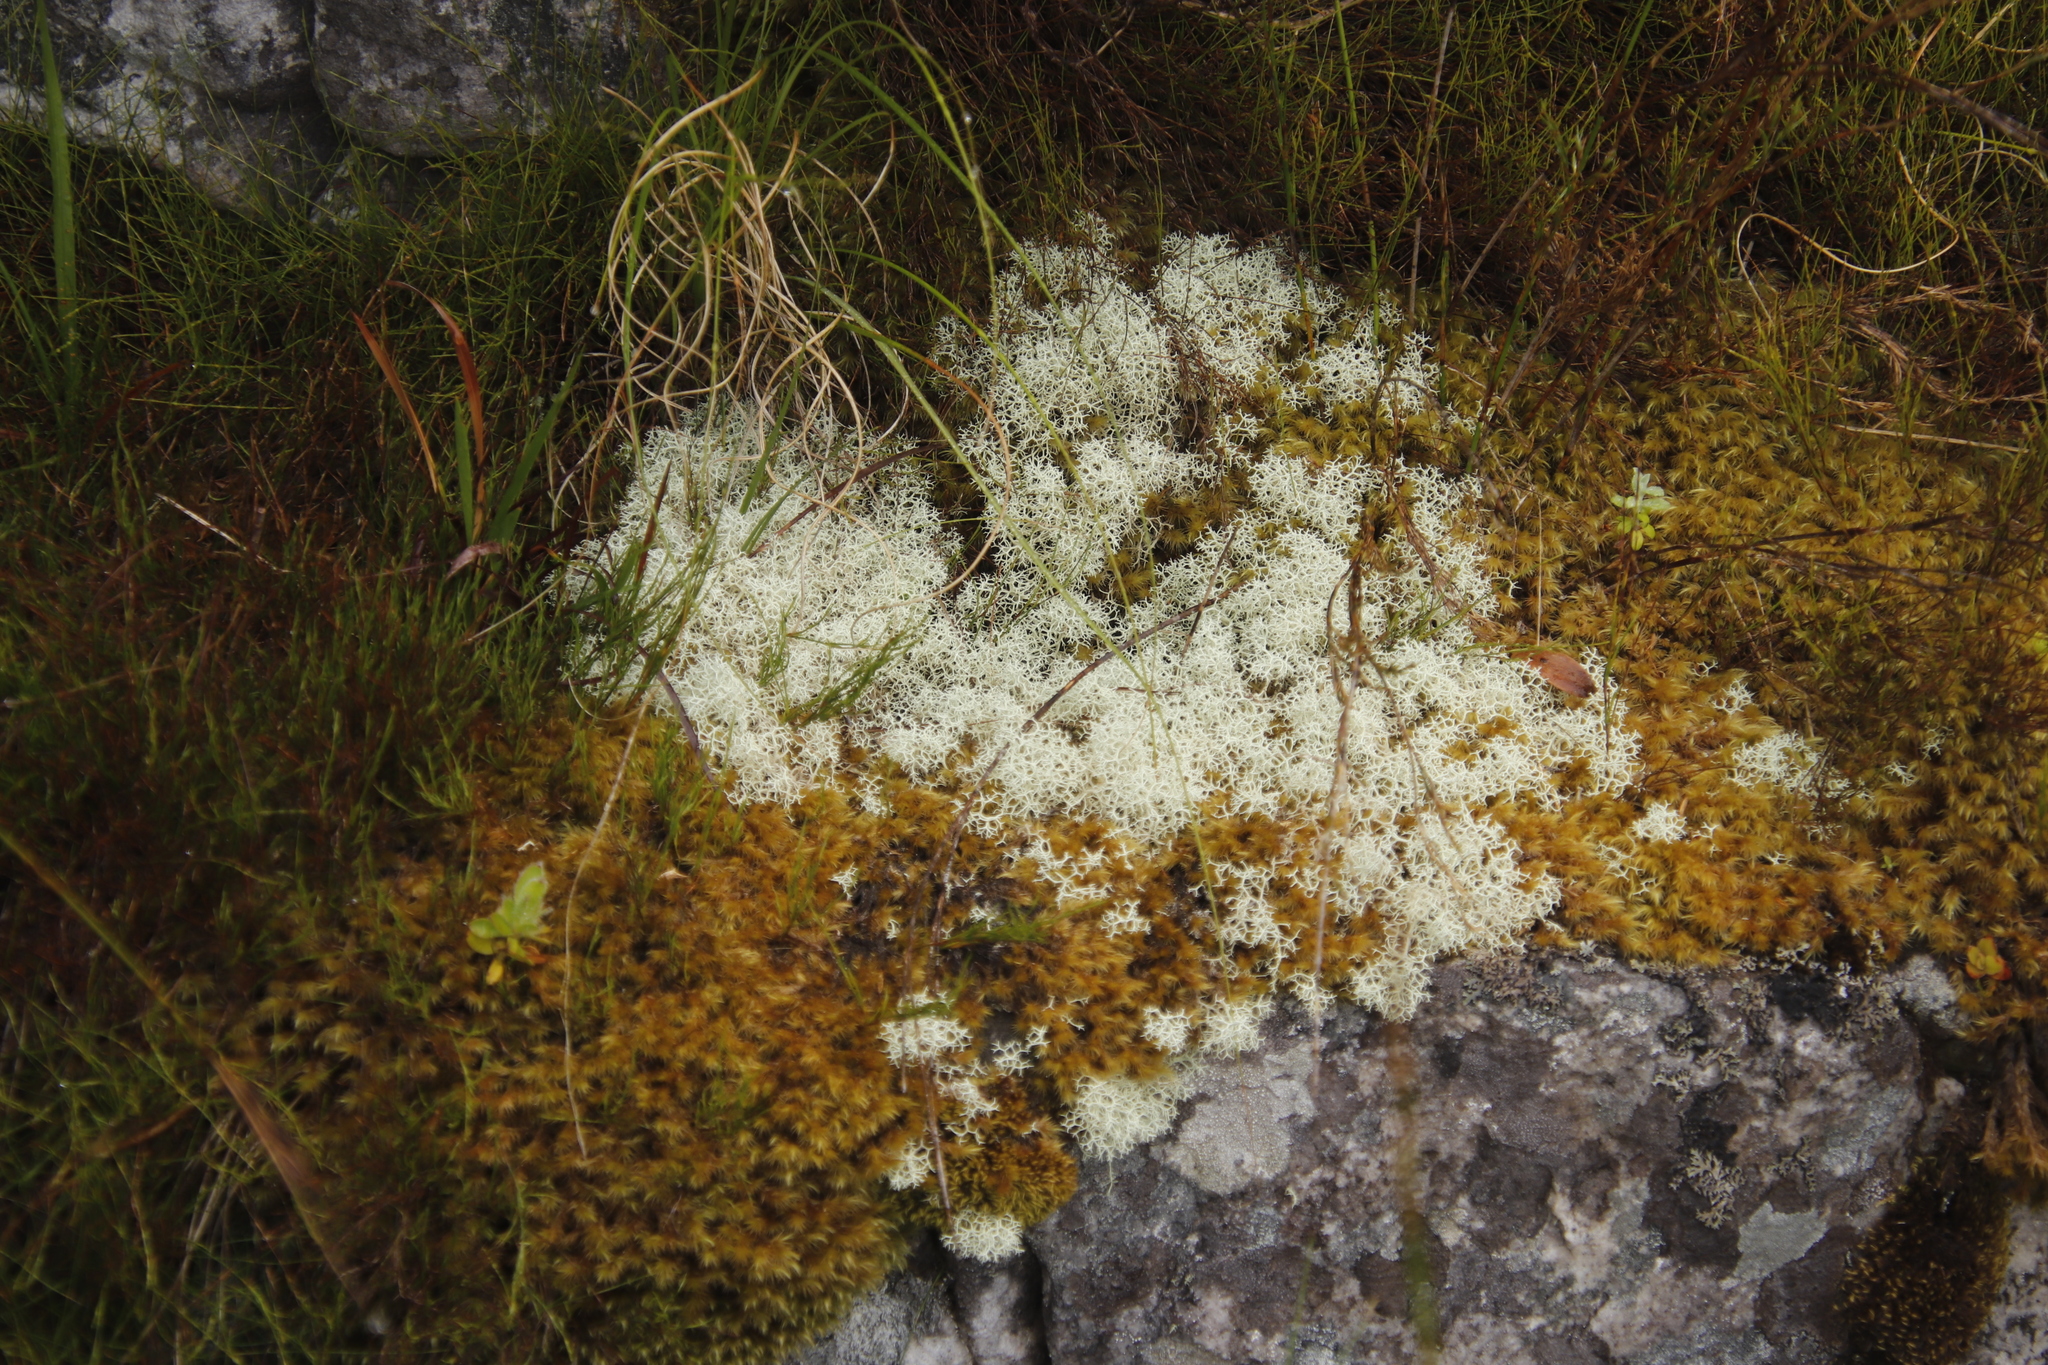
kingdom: Fungi
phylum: Ascomycota
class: Lecanoromycetes
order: Lecanorales
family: Cladoniaceae
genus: Cladonia
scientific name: Cladonia confusa
